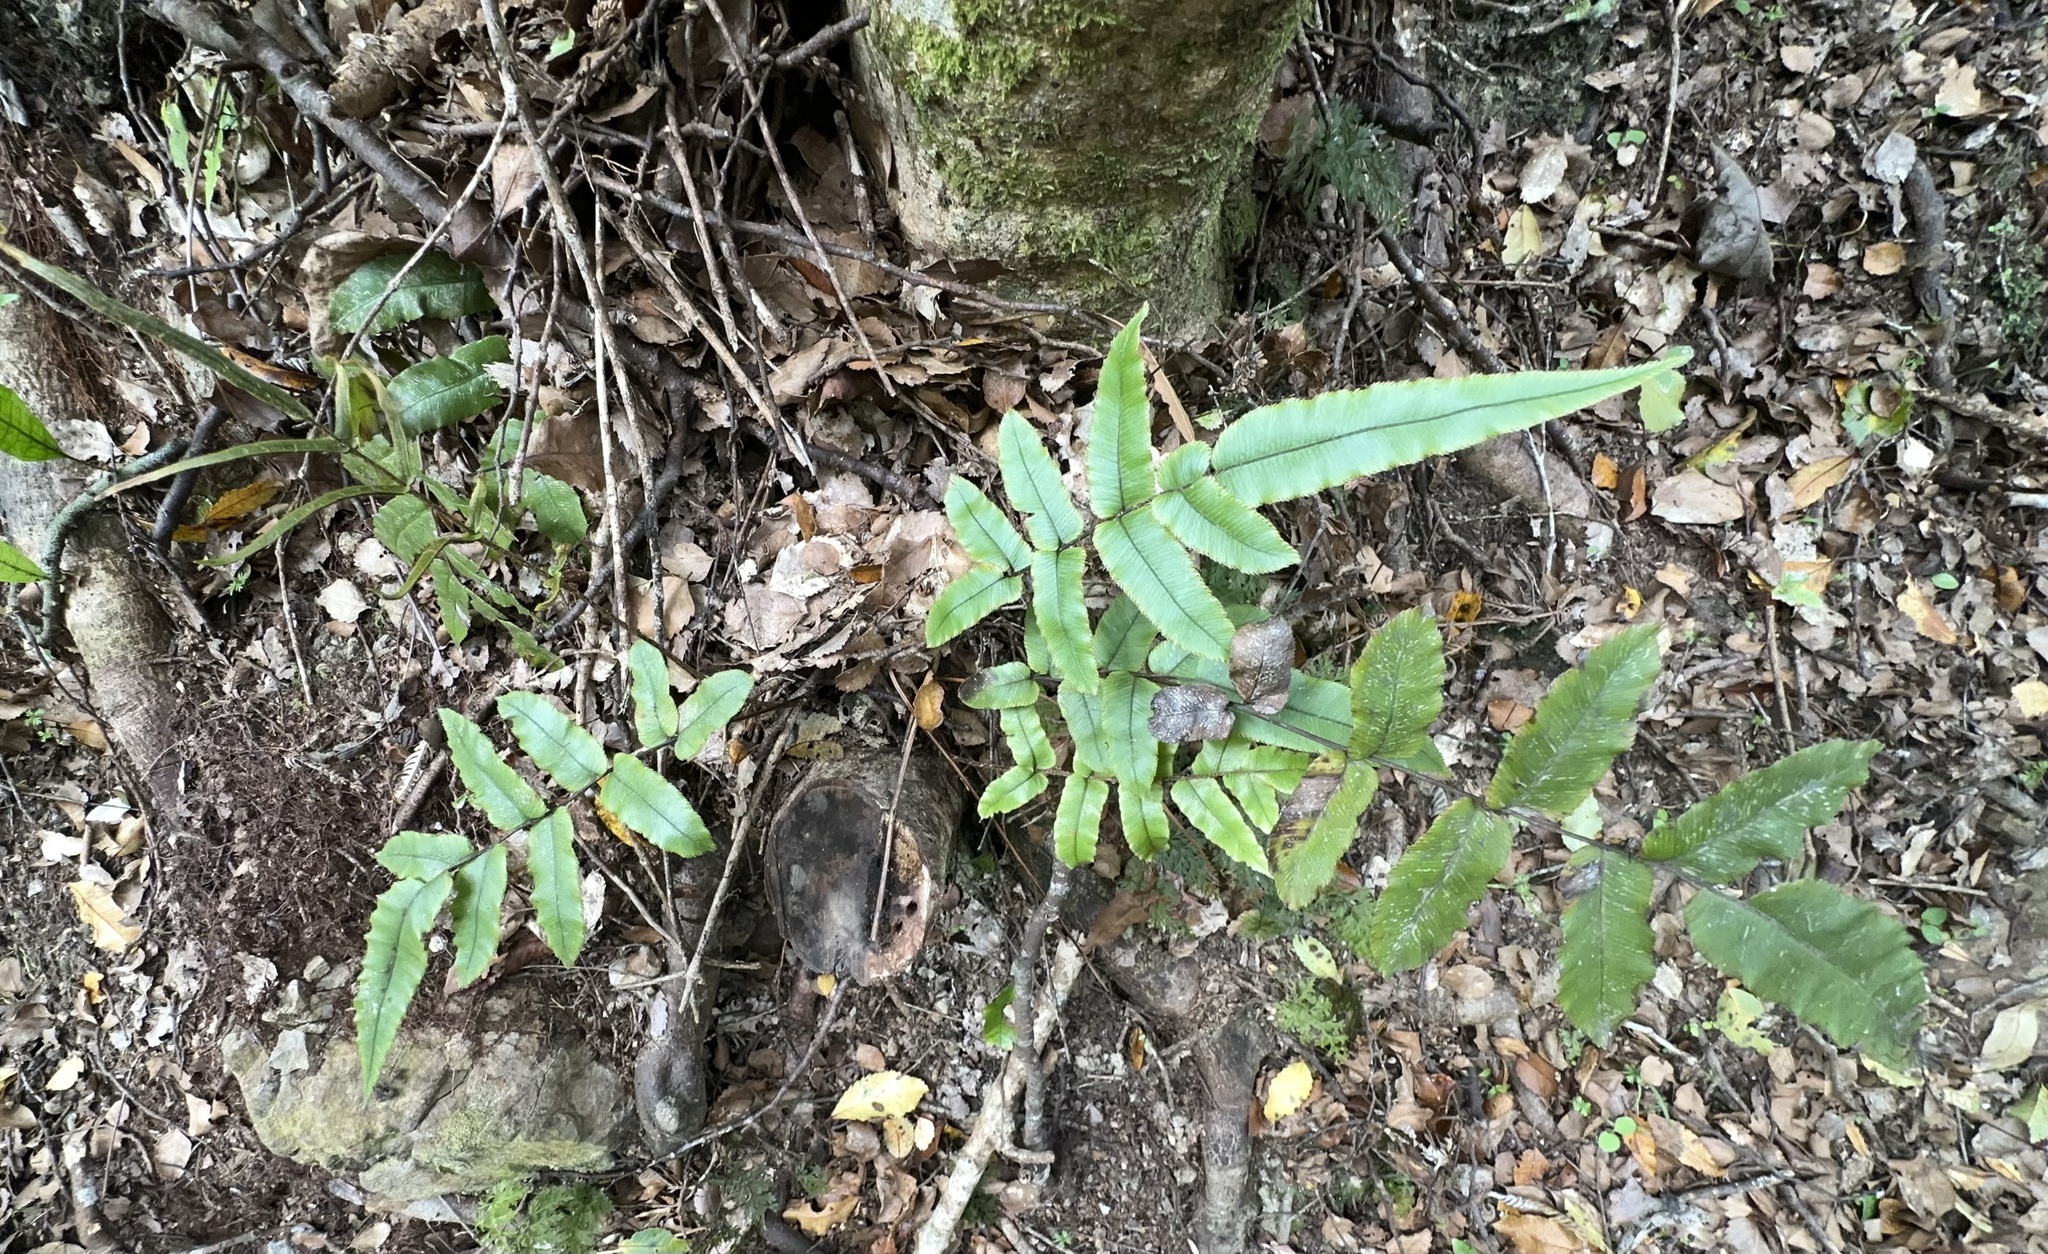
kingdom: Plantae
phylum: Tracheophyta
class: Polypodiopsida
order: Polypodiales
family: Blechnaceae
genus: Parablechnum
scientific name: Parablechnum procerum
